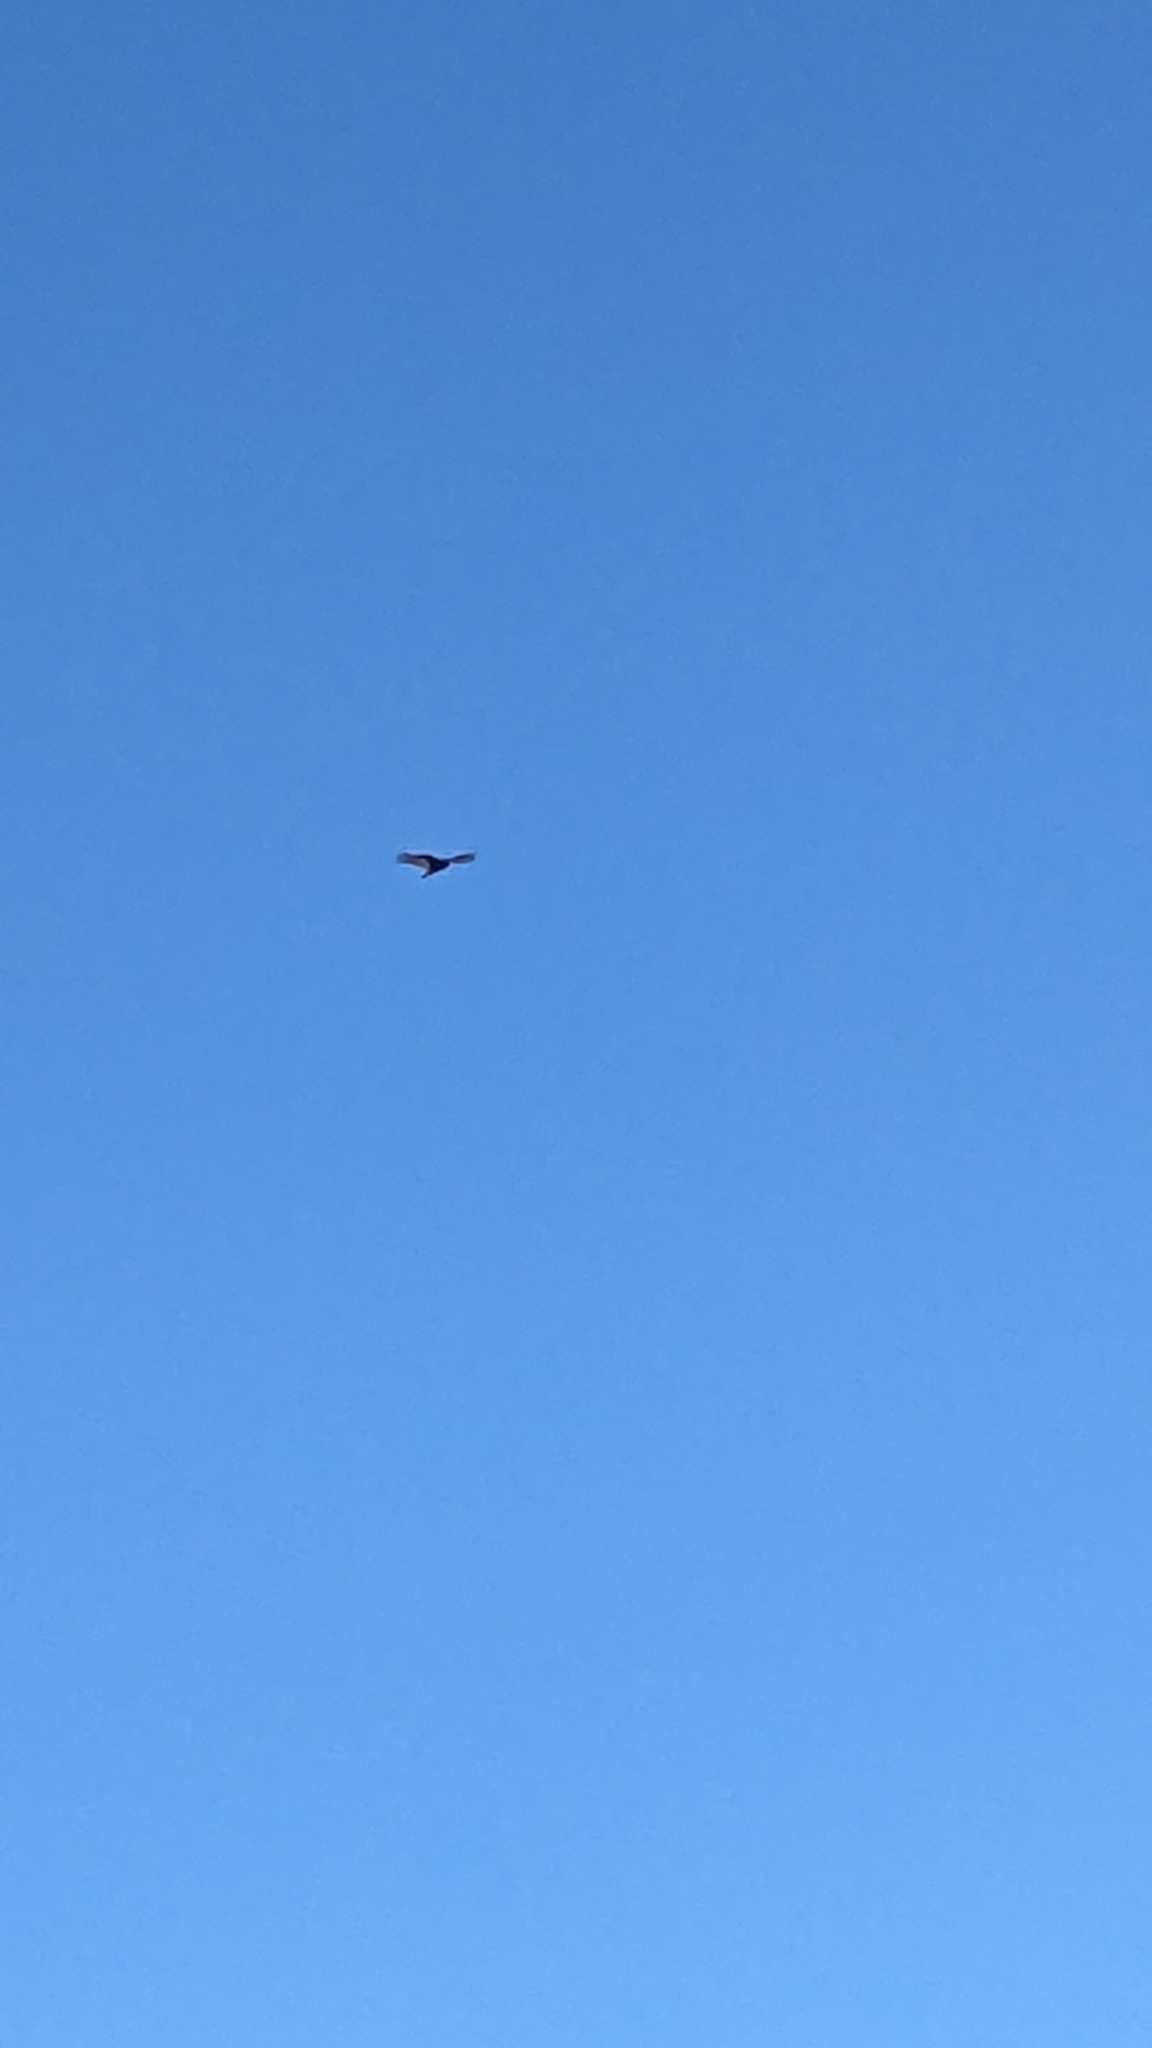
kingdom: Animalia
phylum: Chordata
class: Aves
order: Accipitriformes
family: Cathartidae
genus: Cathartes
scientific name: Cathartes aura
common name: Turkey vulture
